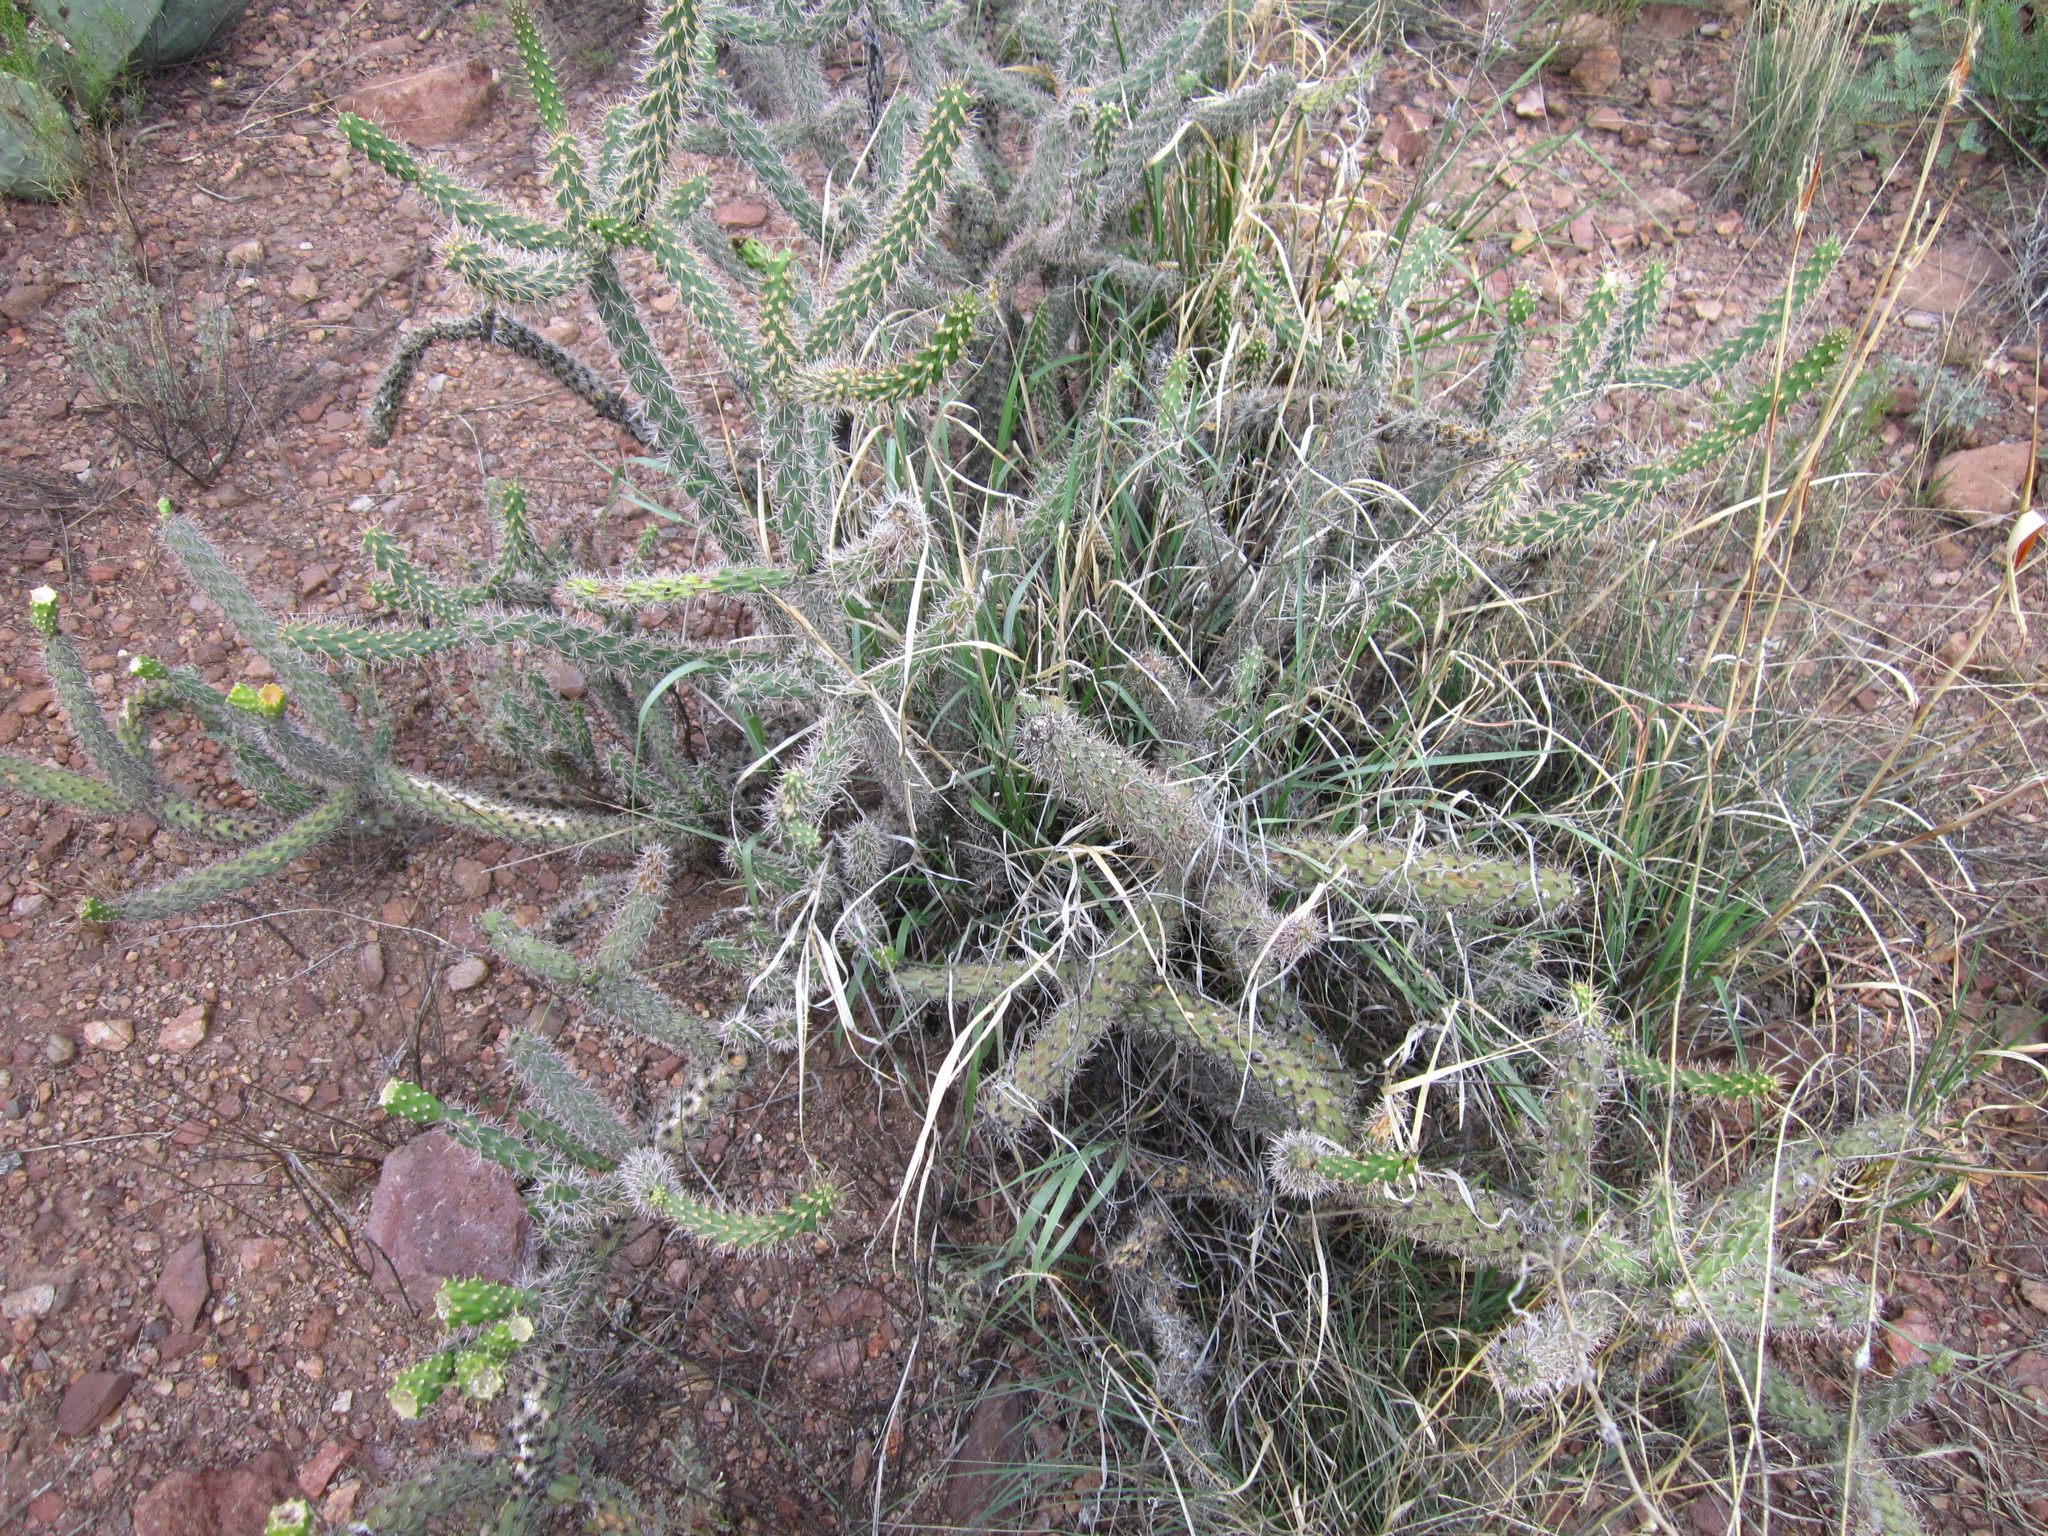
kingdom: Plantae
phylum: Tracheophyta
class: Magnoliopsida
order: Caryophyllales
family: Cactaceae
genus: Cylindropuntia
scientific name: Cylindropuntia imbricata
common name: Candelabrum cactus
